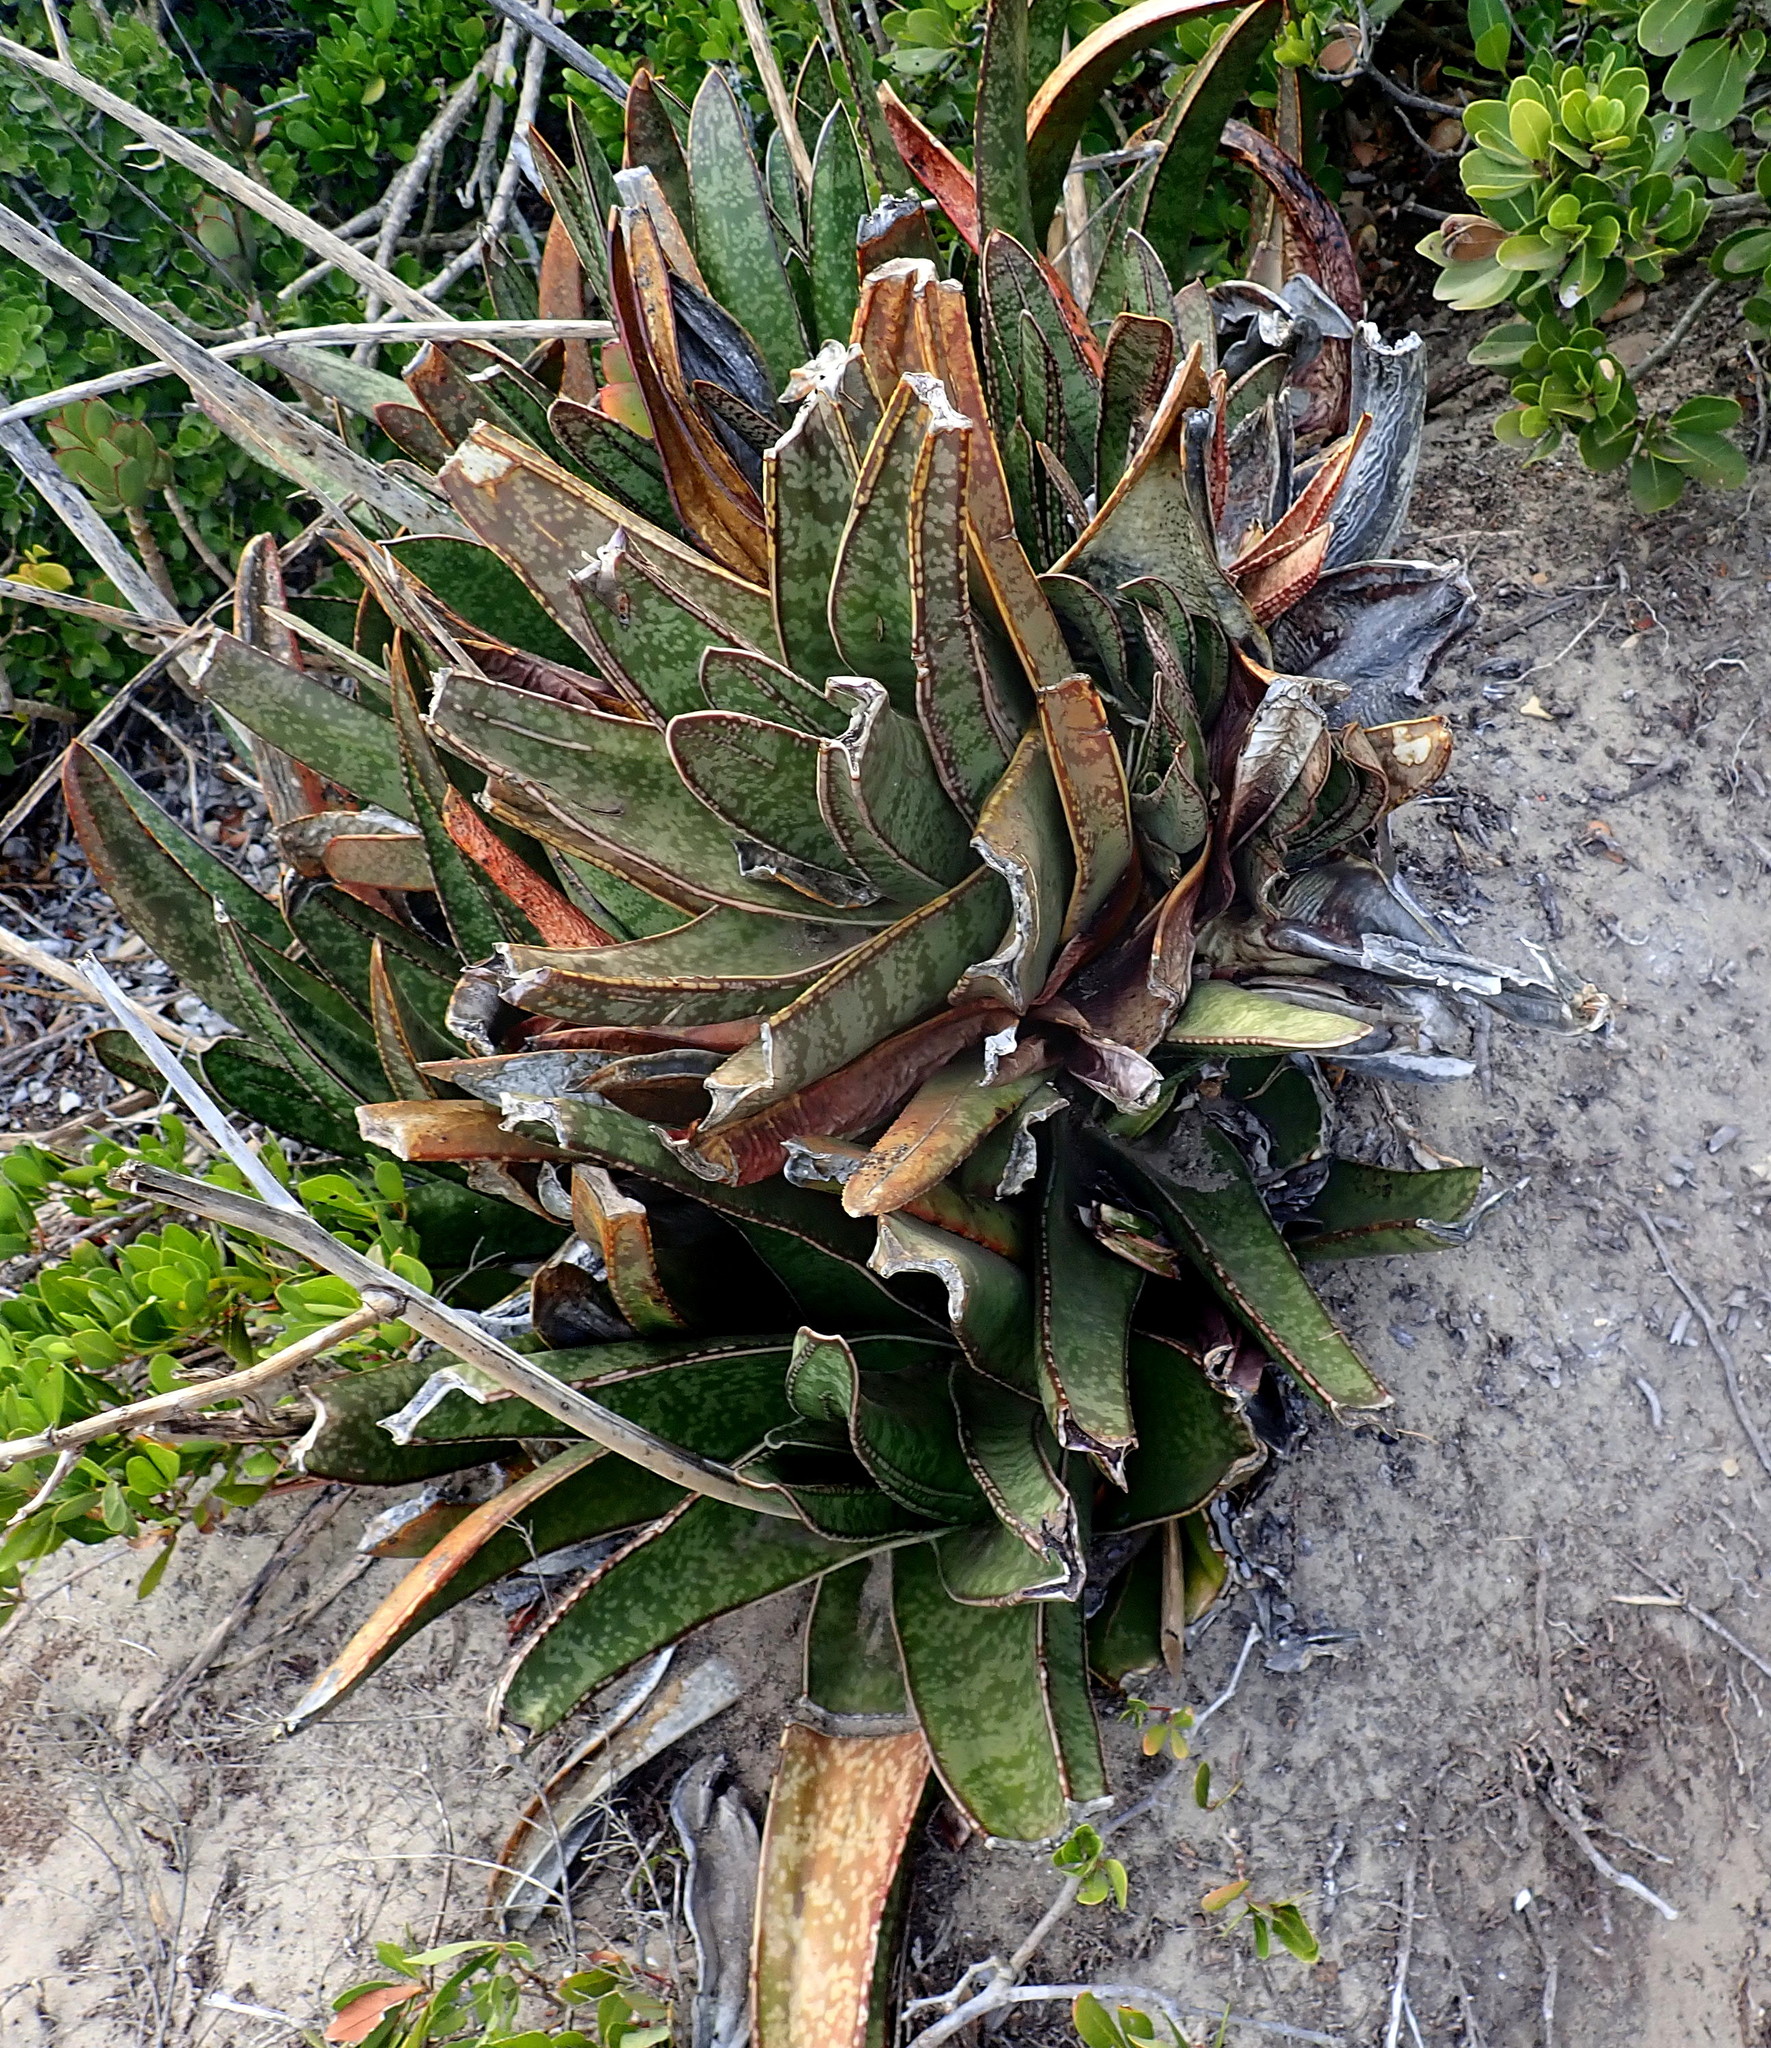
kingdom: Plantae
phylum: Tracheophyta
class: Liliopsida
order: Asparagales
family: Asphodelaceae
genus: Gasteria
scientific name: Gasteria acinacifolia
